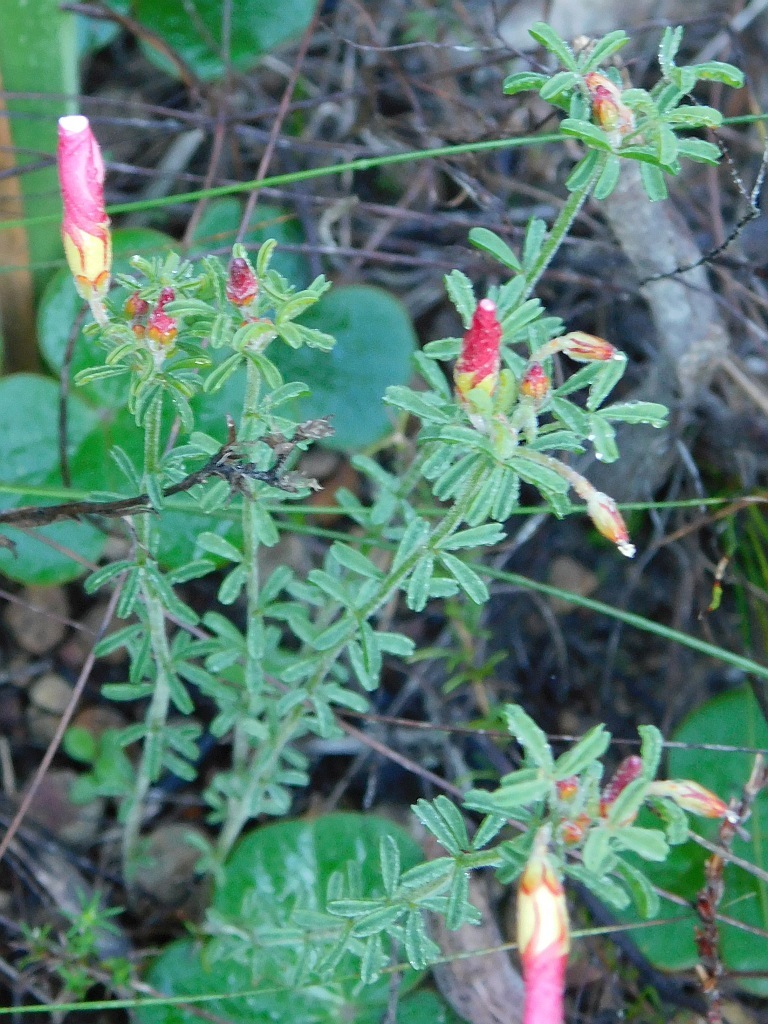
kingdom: Plantae
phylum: Tracheophyta
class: Magnoliopsida
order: Oxalidales
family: Oxalidaceae
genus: Oxalis
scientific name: Oxalis multicaulis
